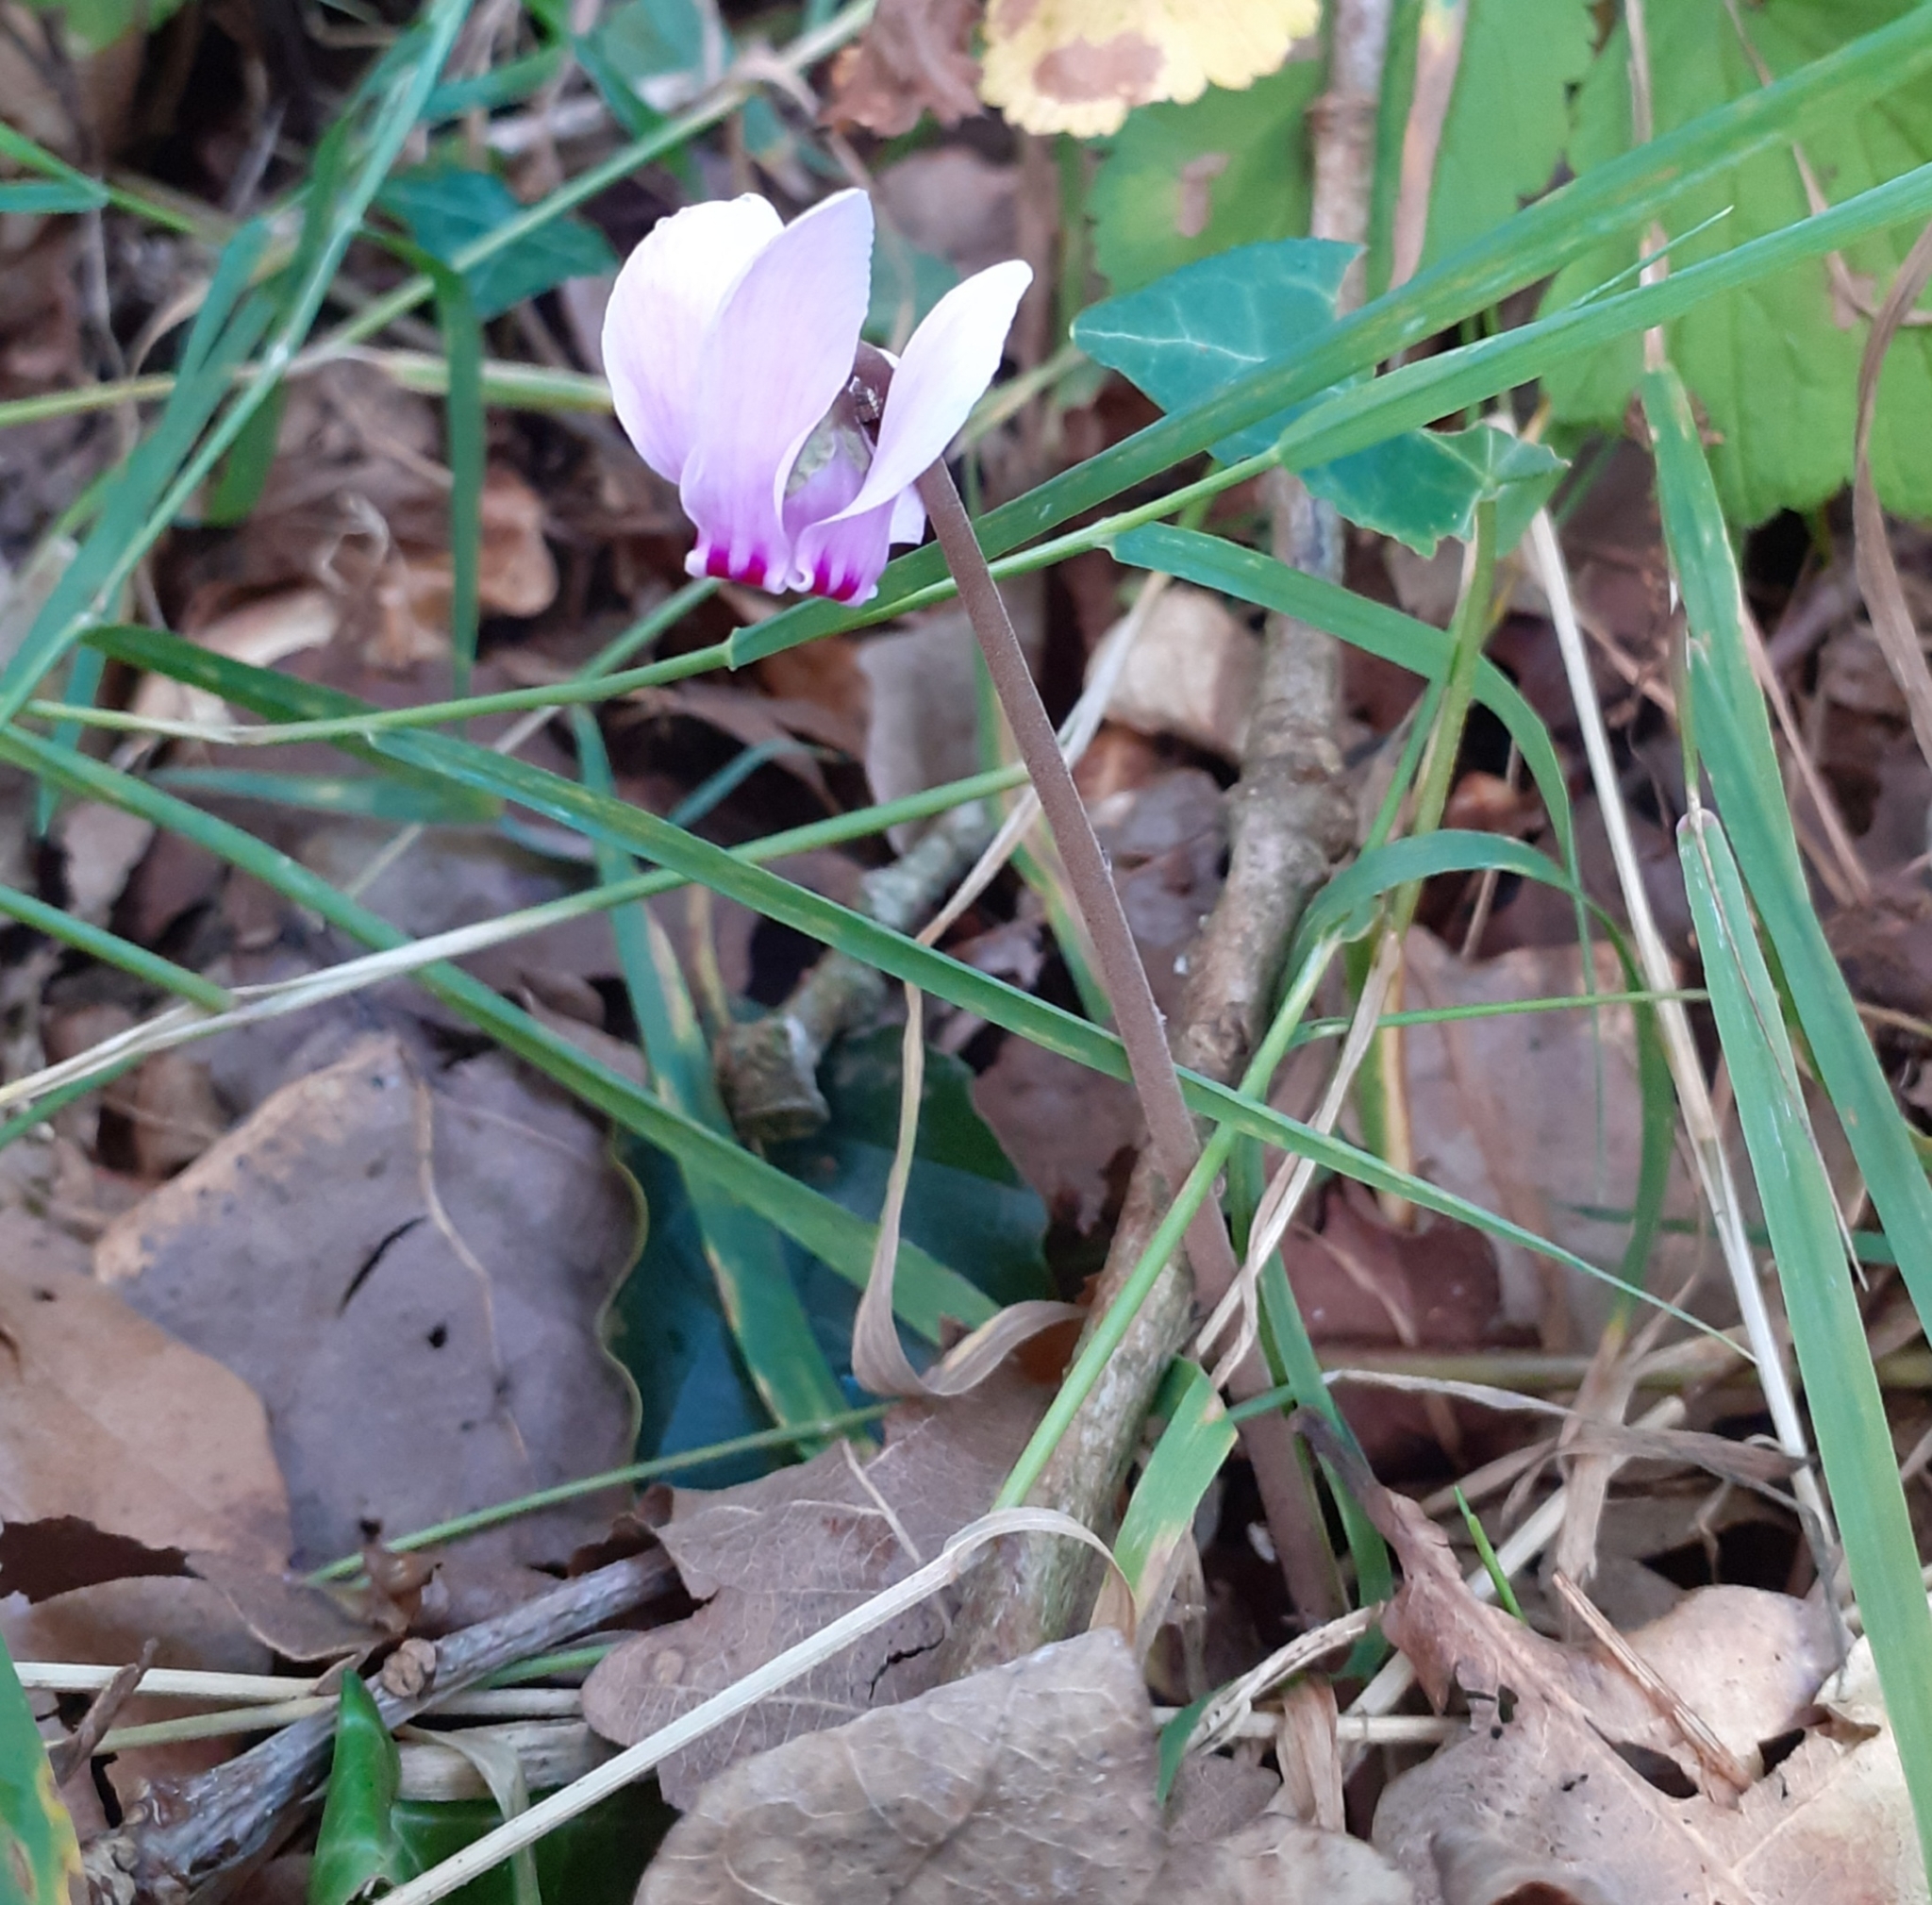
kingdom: Plantae
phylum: Tracheophyta
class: Magnoliopsida
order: Ericales
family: Primulaceae
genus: Cyclamen
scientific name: Cyclamen hederifolium
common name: Sowbread
